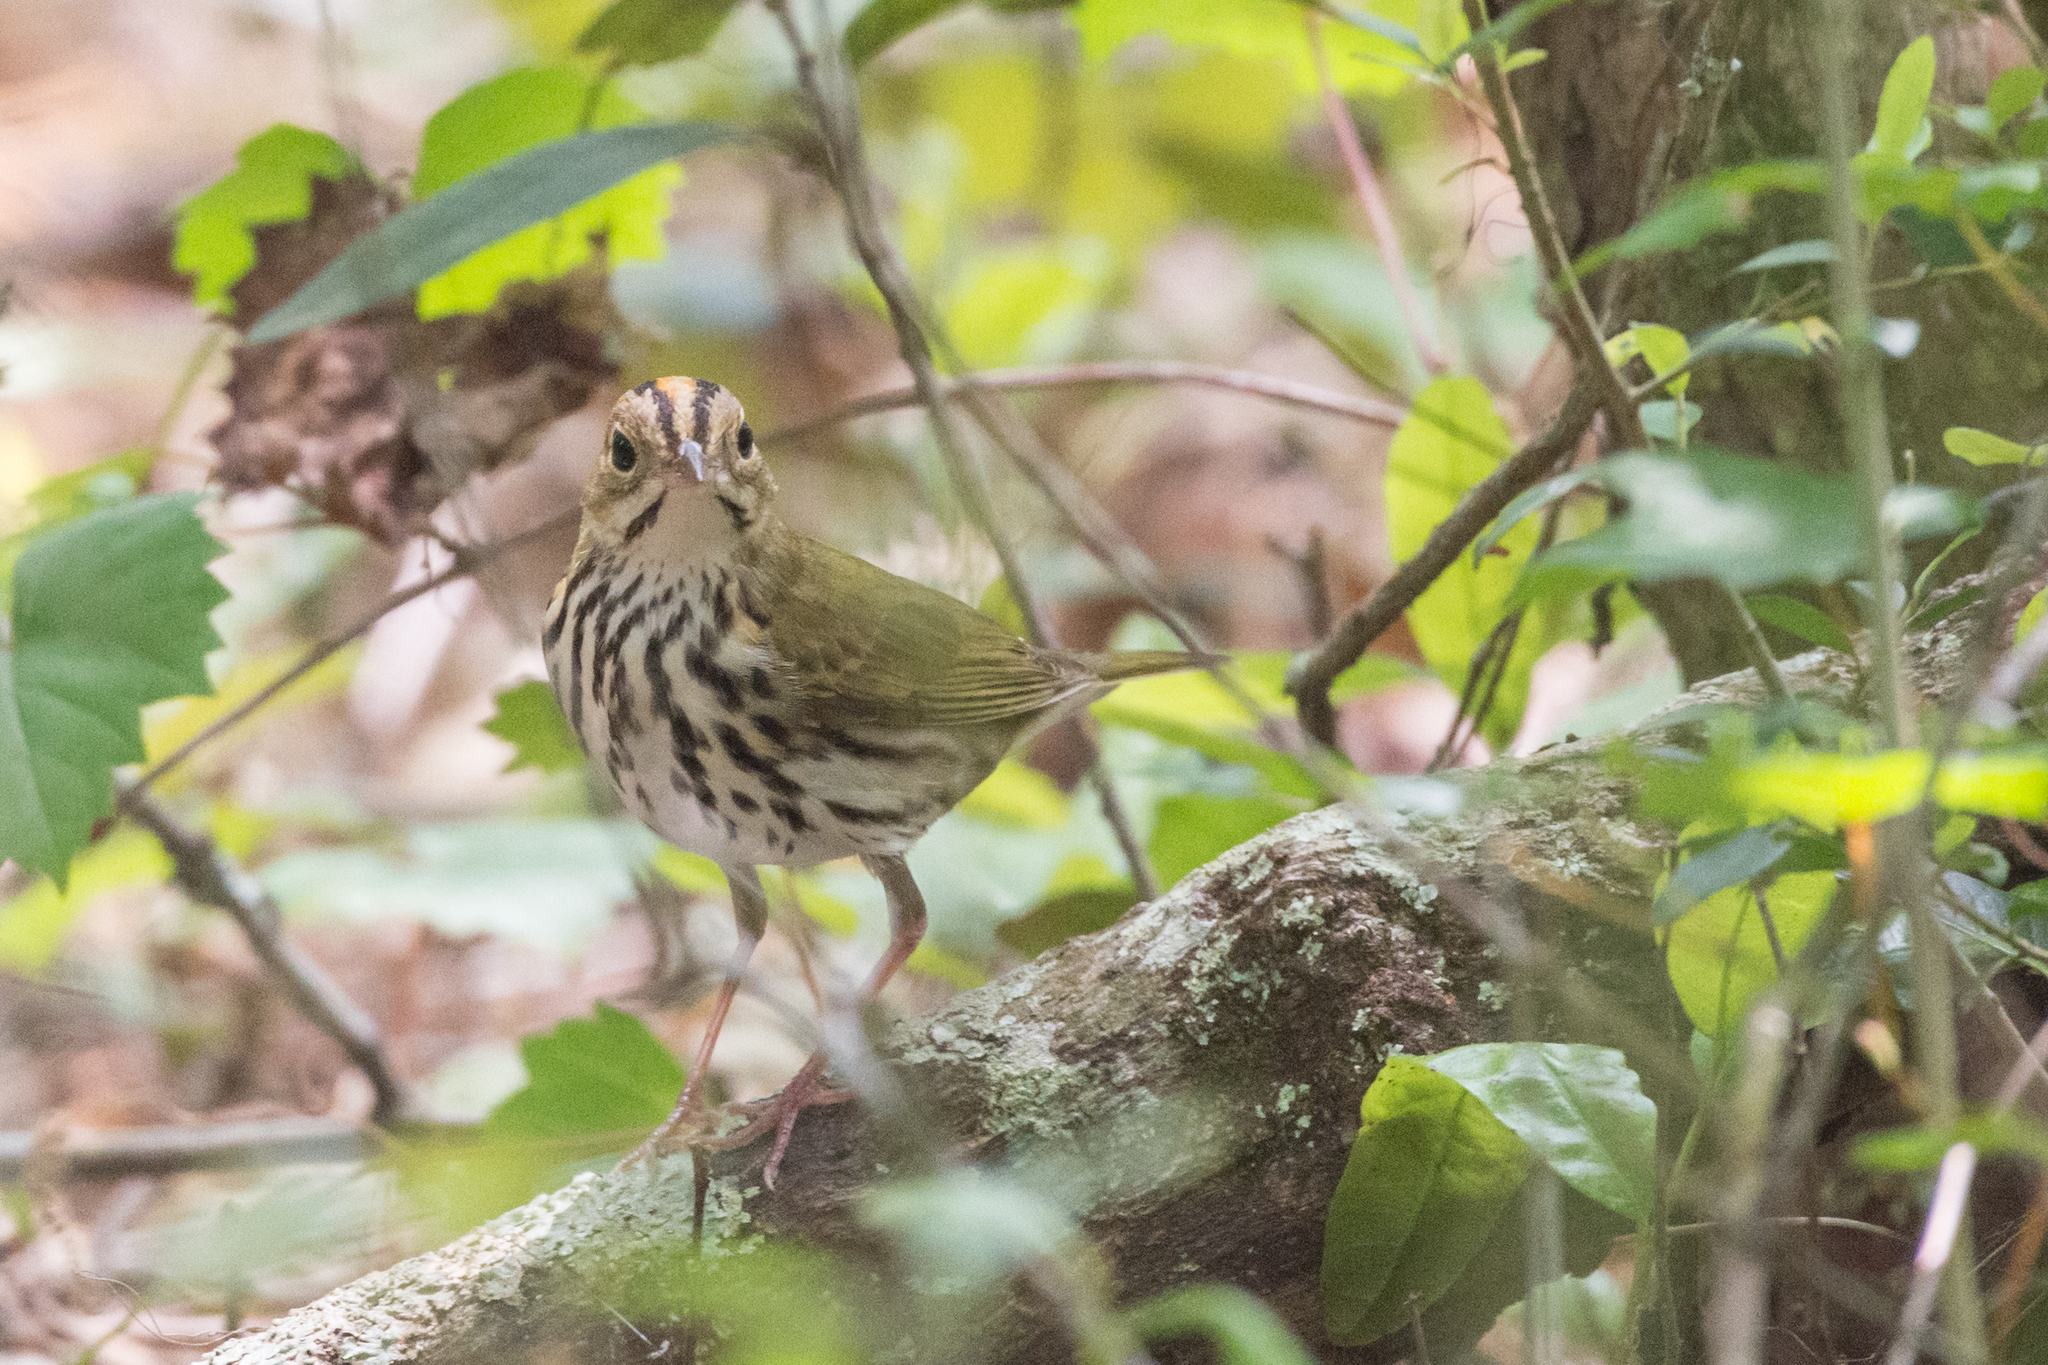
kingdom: Animalia
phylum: Chordata
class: Aves
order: Passeriformes
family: Parulidae
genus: Seiurus
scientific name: Seiurus aurocapilla
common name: Ovenbird
